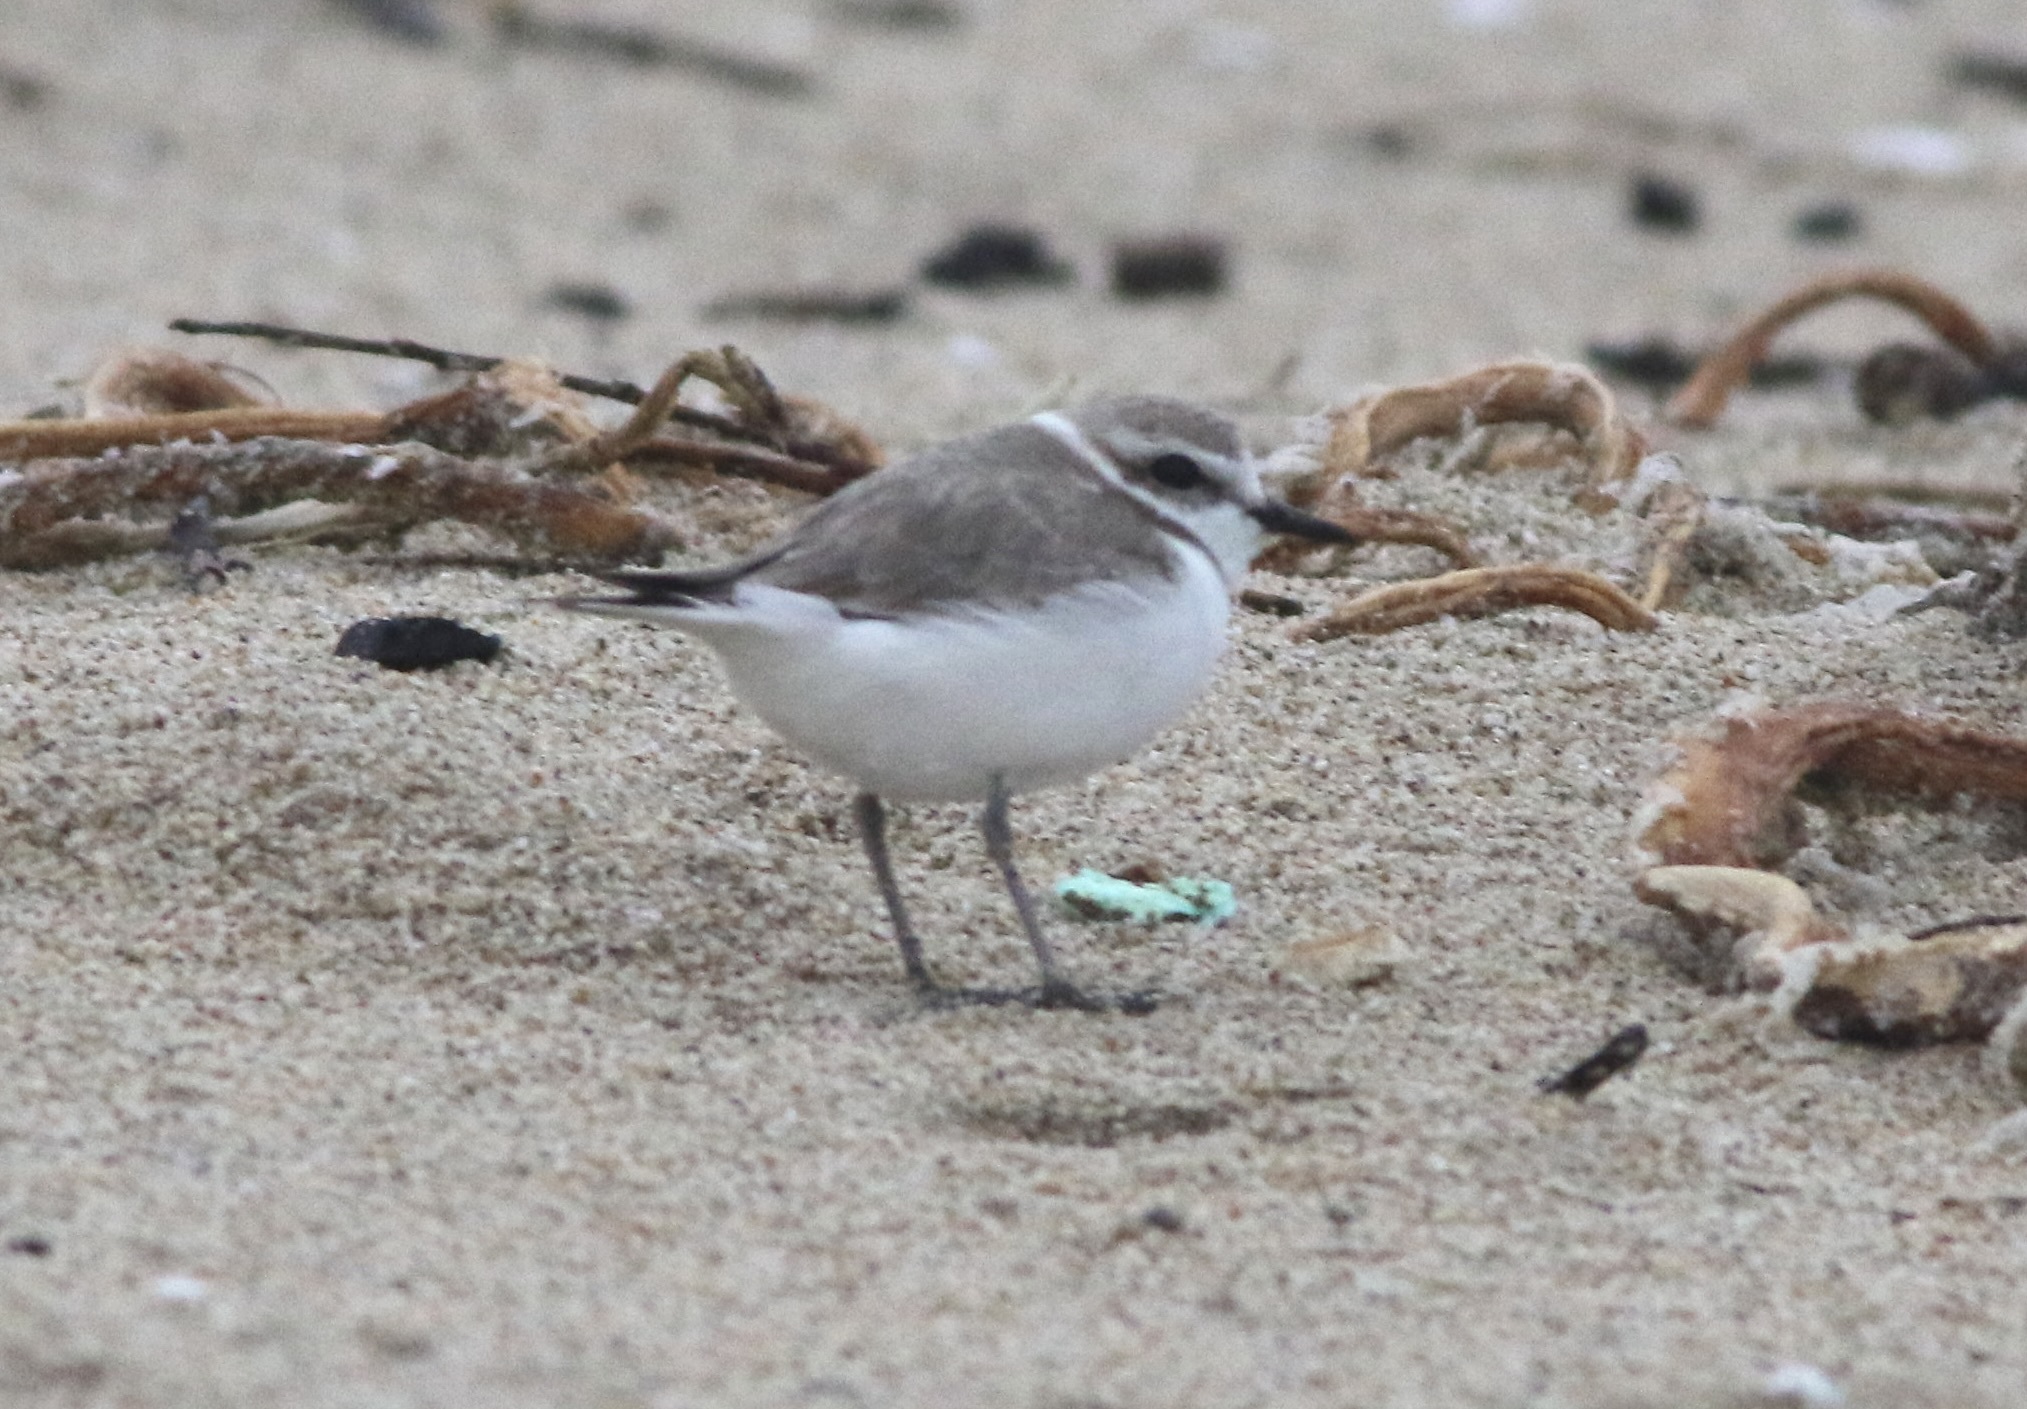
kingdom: Animalia
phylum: Chordata
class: Aves
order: Charadriiformes
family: Charadriidae
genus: Anarhynchus
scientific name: Anarhynchus
